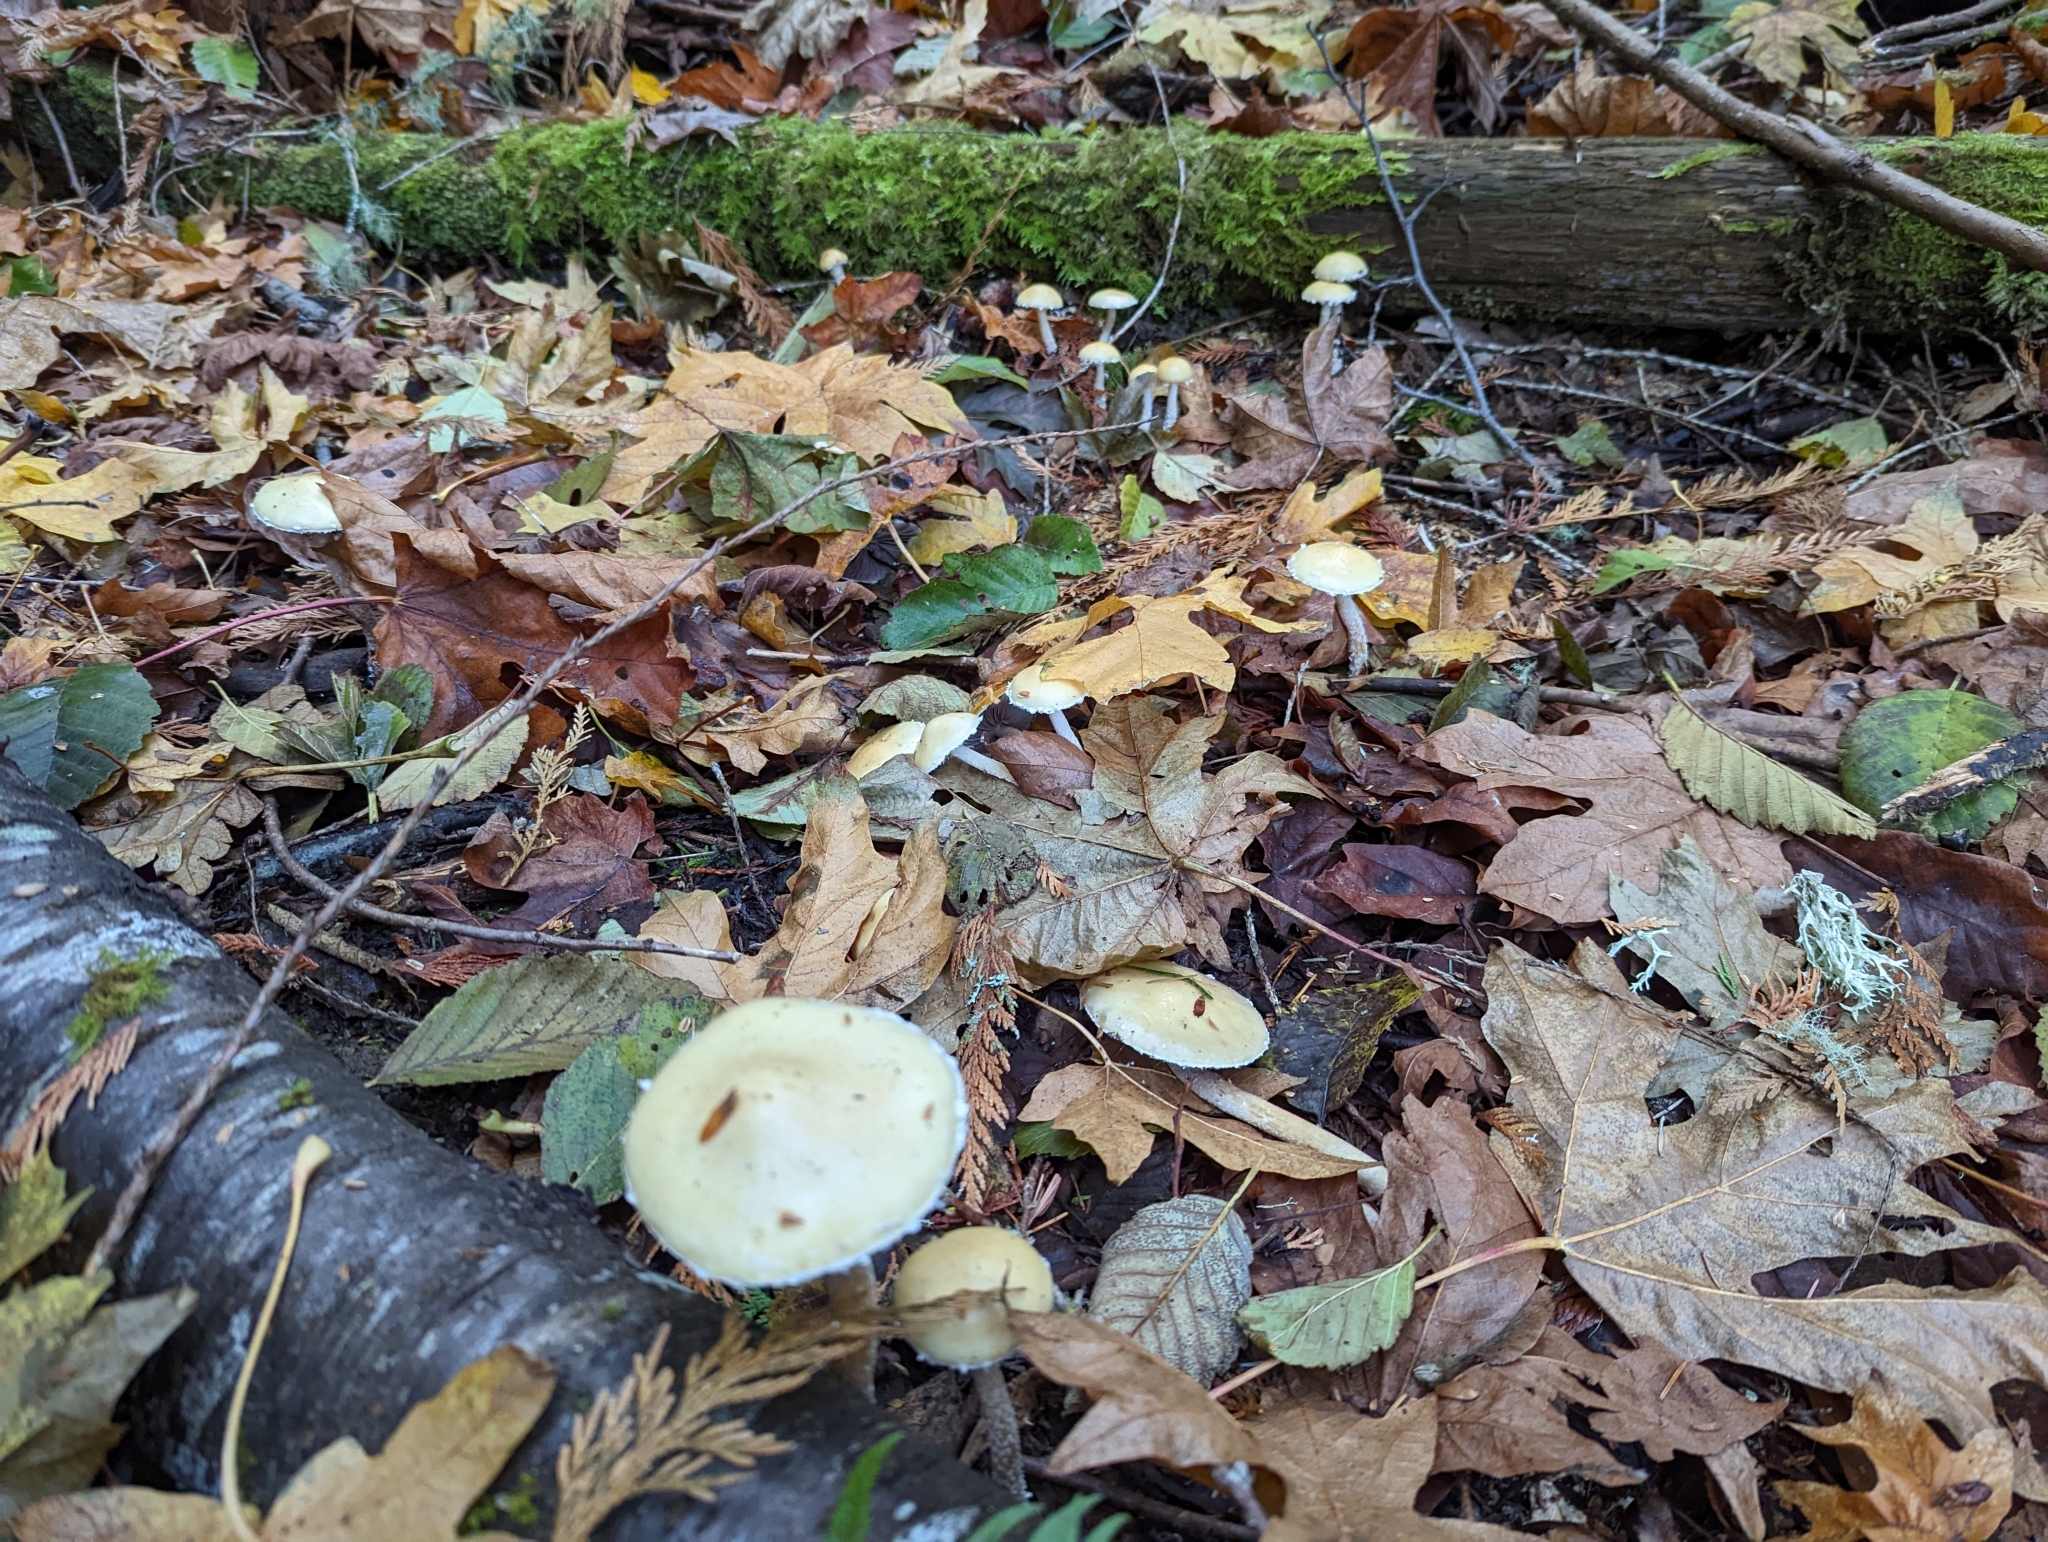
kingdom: Fungi
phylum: Basidiomycota
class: Agaricomycetes
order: Agaricales
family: Strophariaceae
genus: Stropharia
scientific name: Stropharia ambigua
